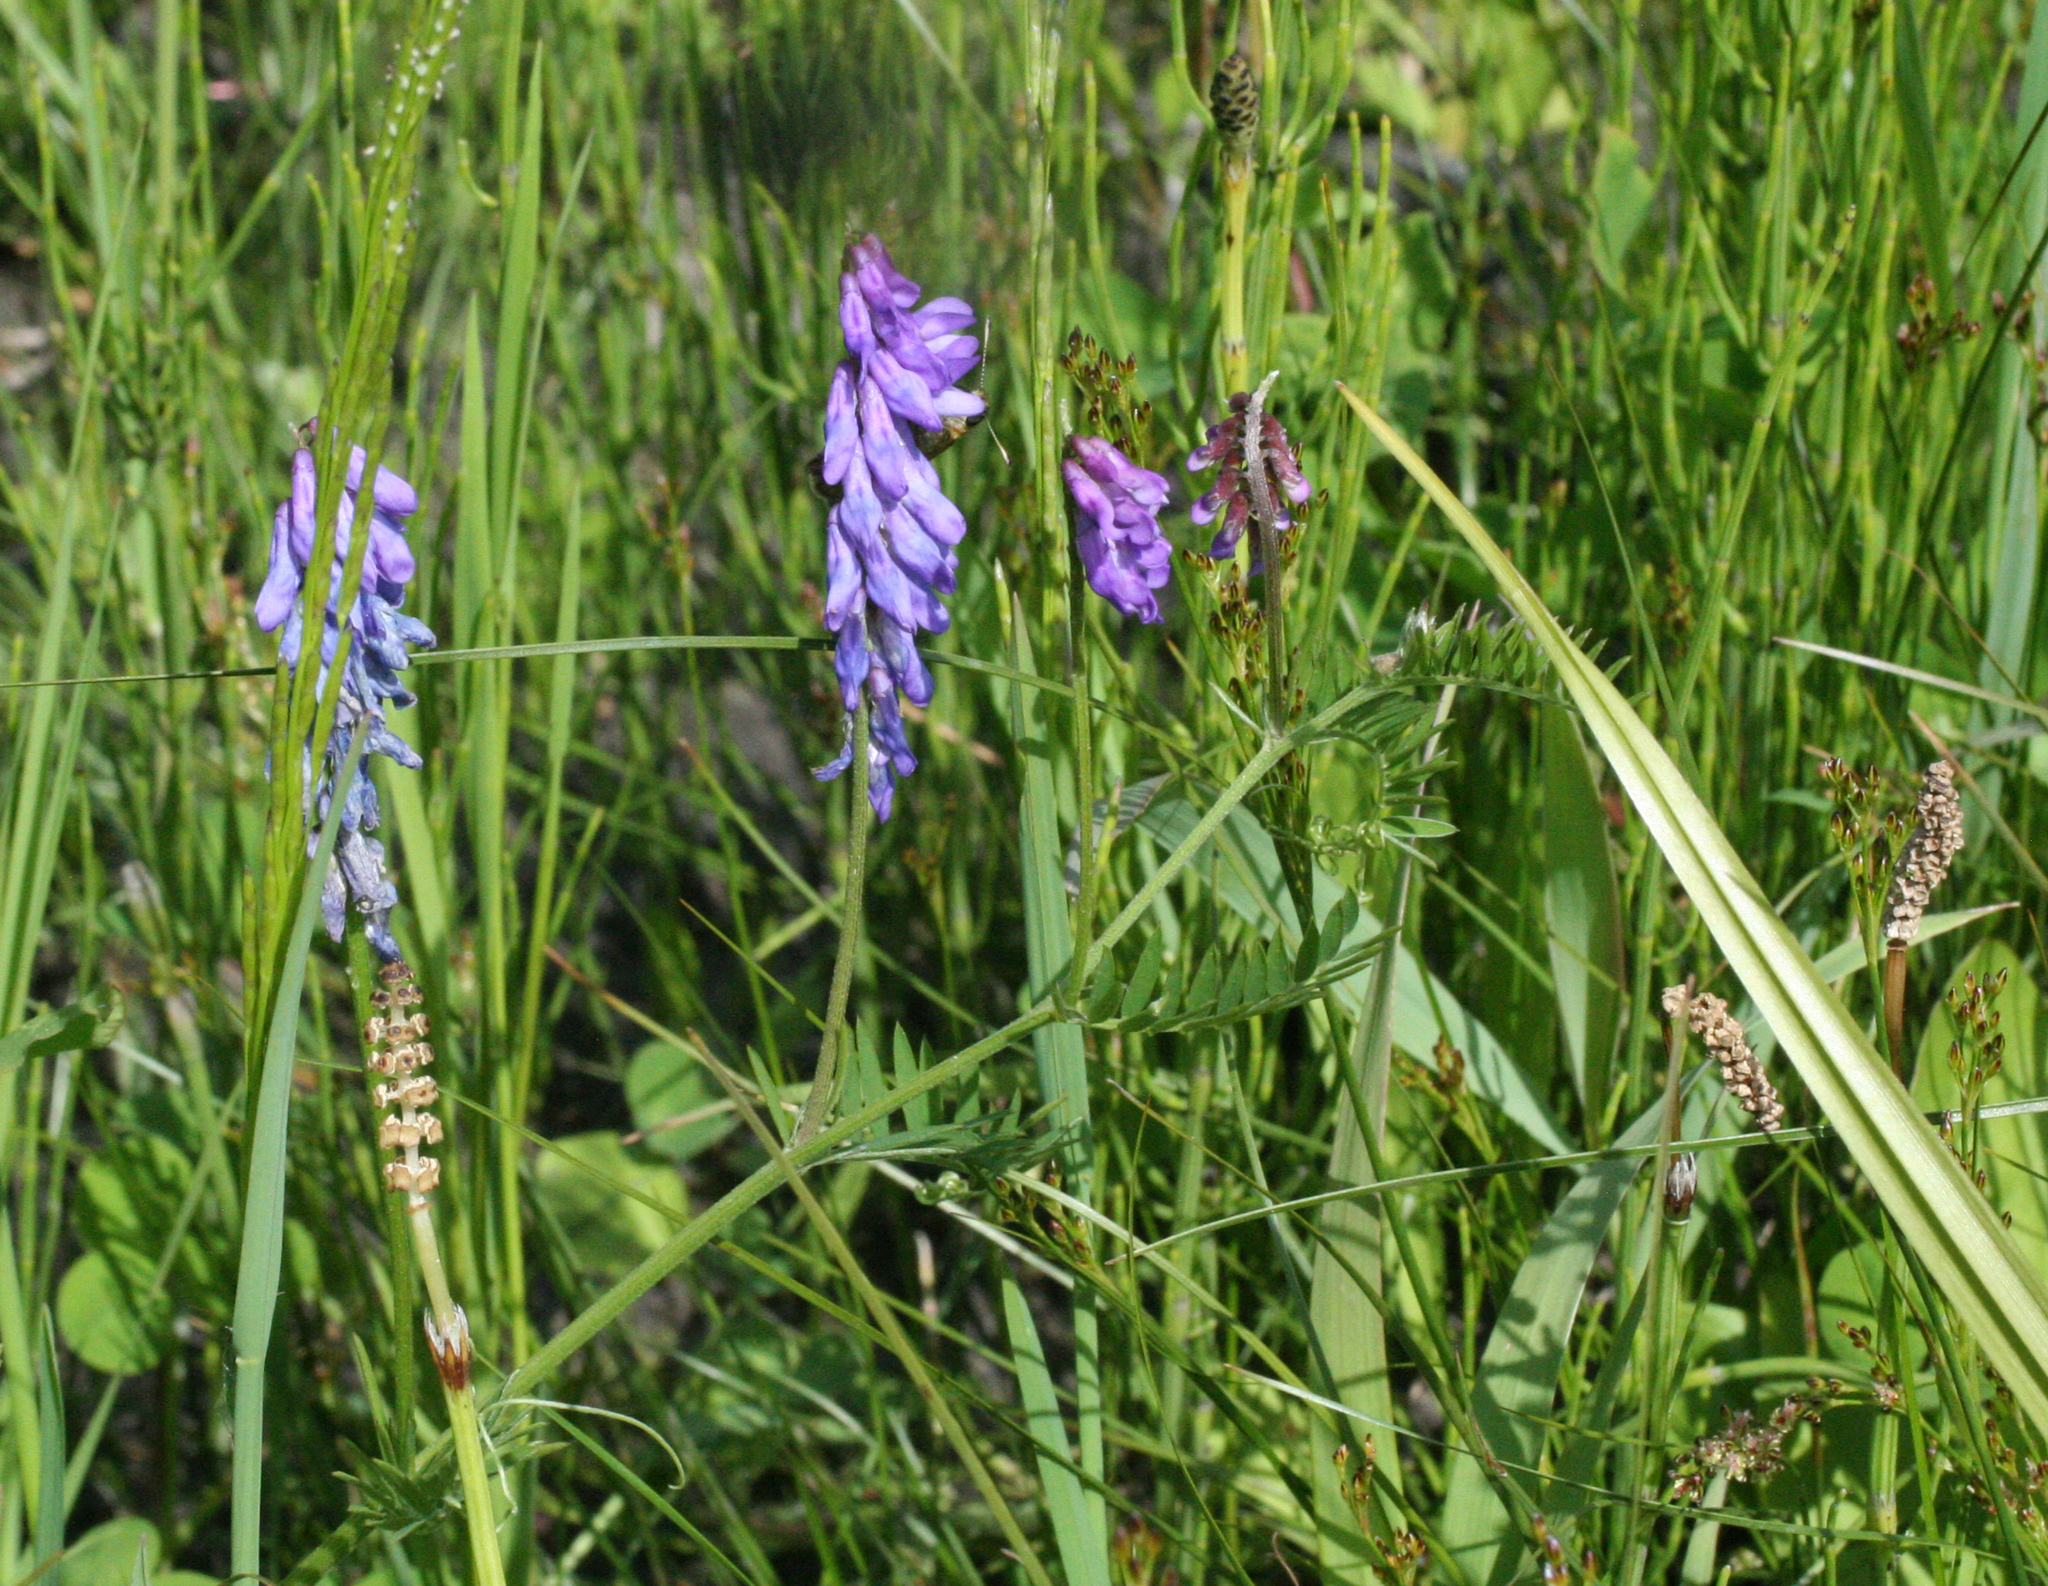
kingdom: Plantae
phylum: Tracheophyta
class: Magnoliopsida
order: Fabales
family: Fabaceae
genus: Vicia
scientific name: Vicia cracca
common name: Bird vetch
